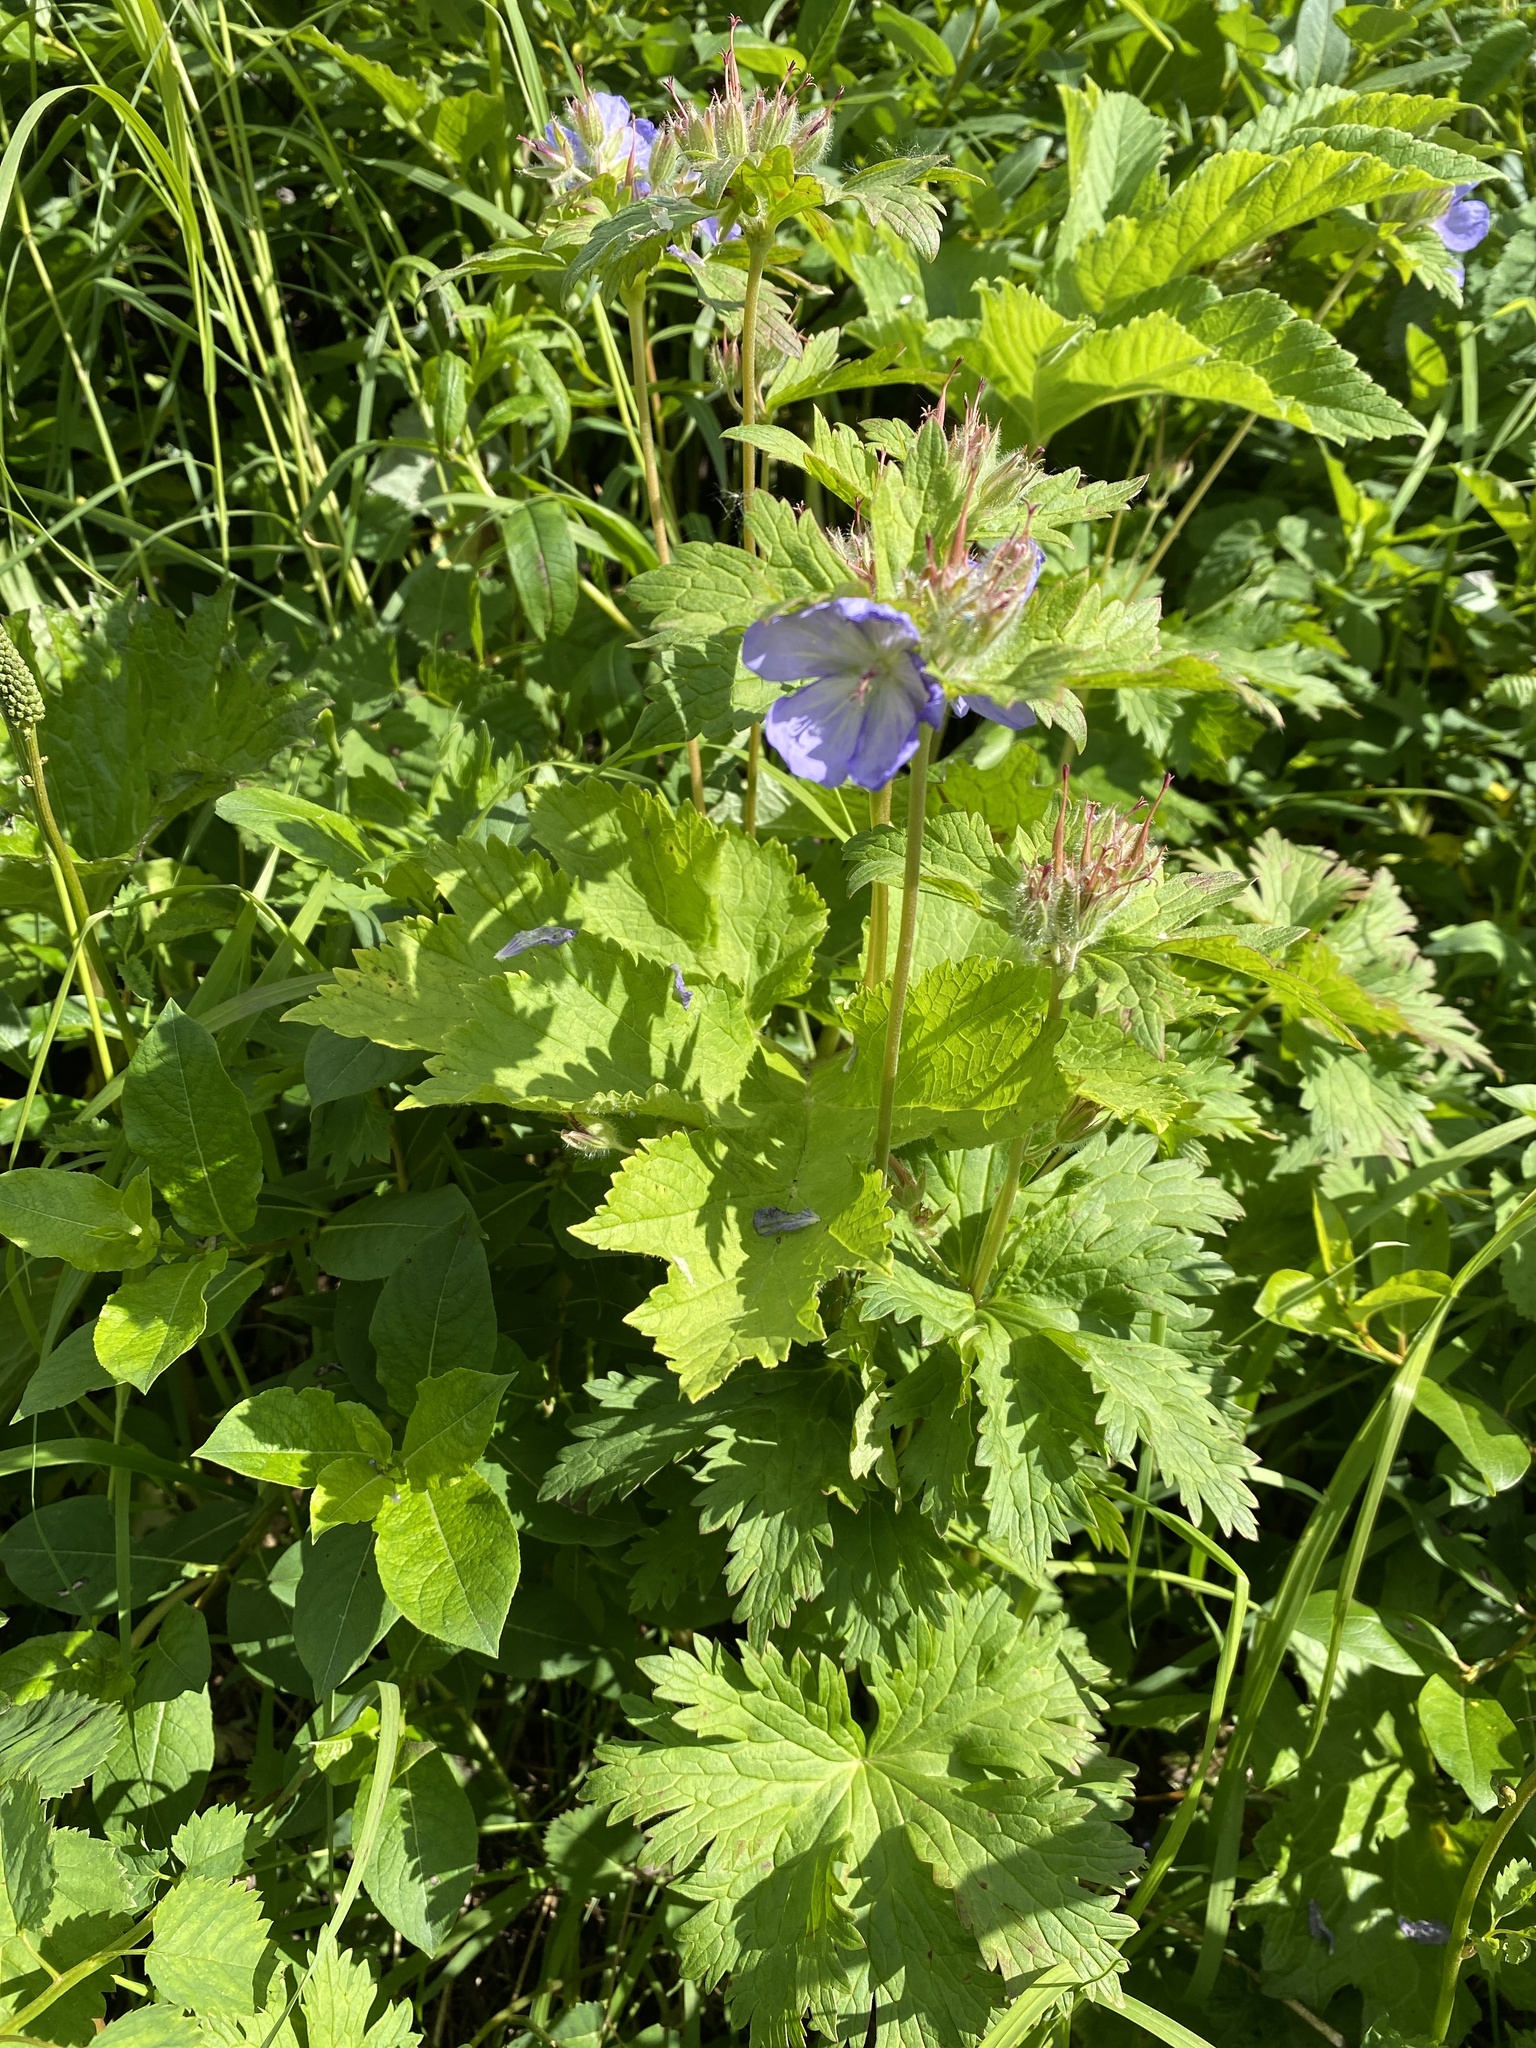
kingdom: Plantae
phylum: Tracheophyta
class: Magnoliopsida
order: Geraniales
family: Geraniaceae
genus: Geranium
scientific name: Geranium erianthum
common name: Northern crane's-bill
